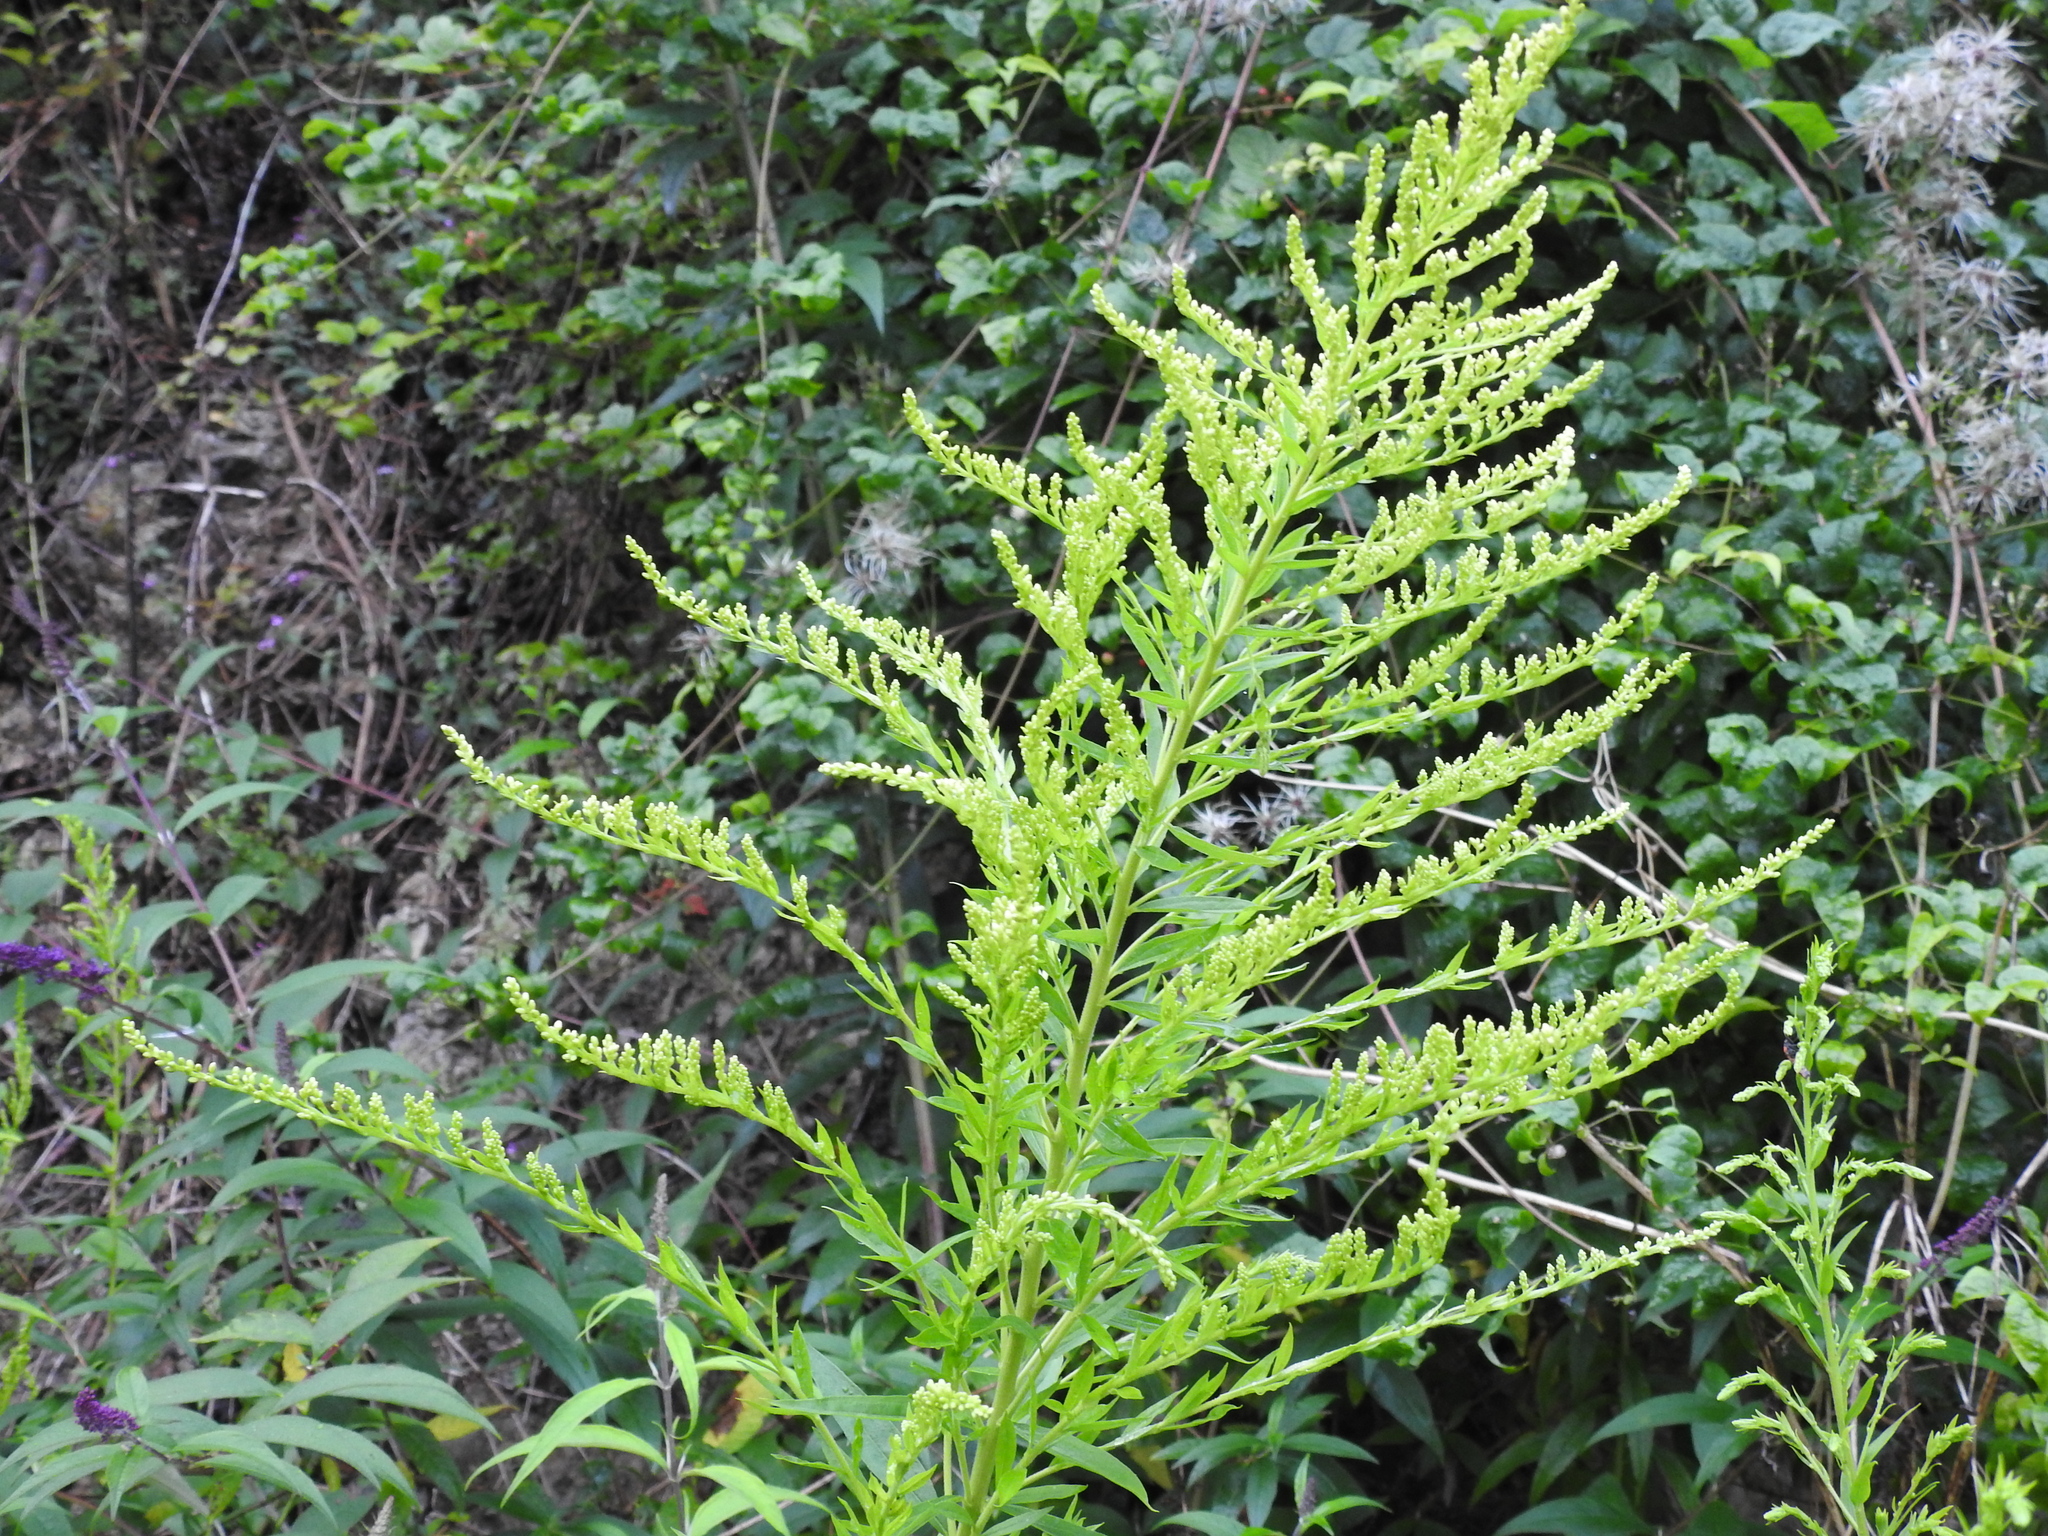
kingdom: Plantae
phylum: Tracheophyta
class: Magnoliopsida
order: Asterales
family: Asteraceae
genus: Solidago
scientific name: Solidago canadensis
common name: Canada goldenrod
